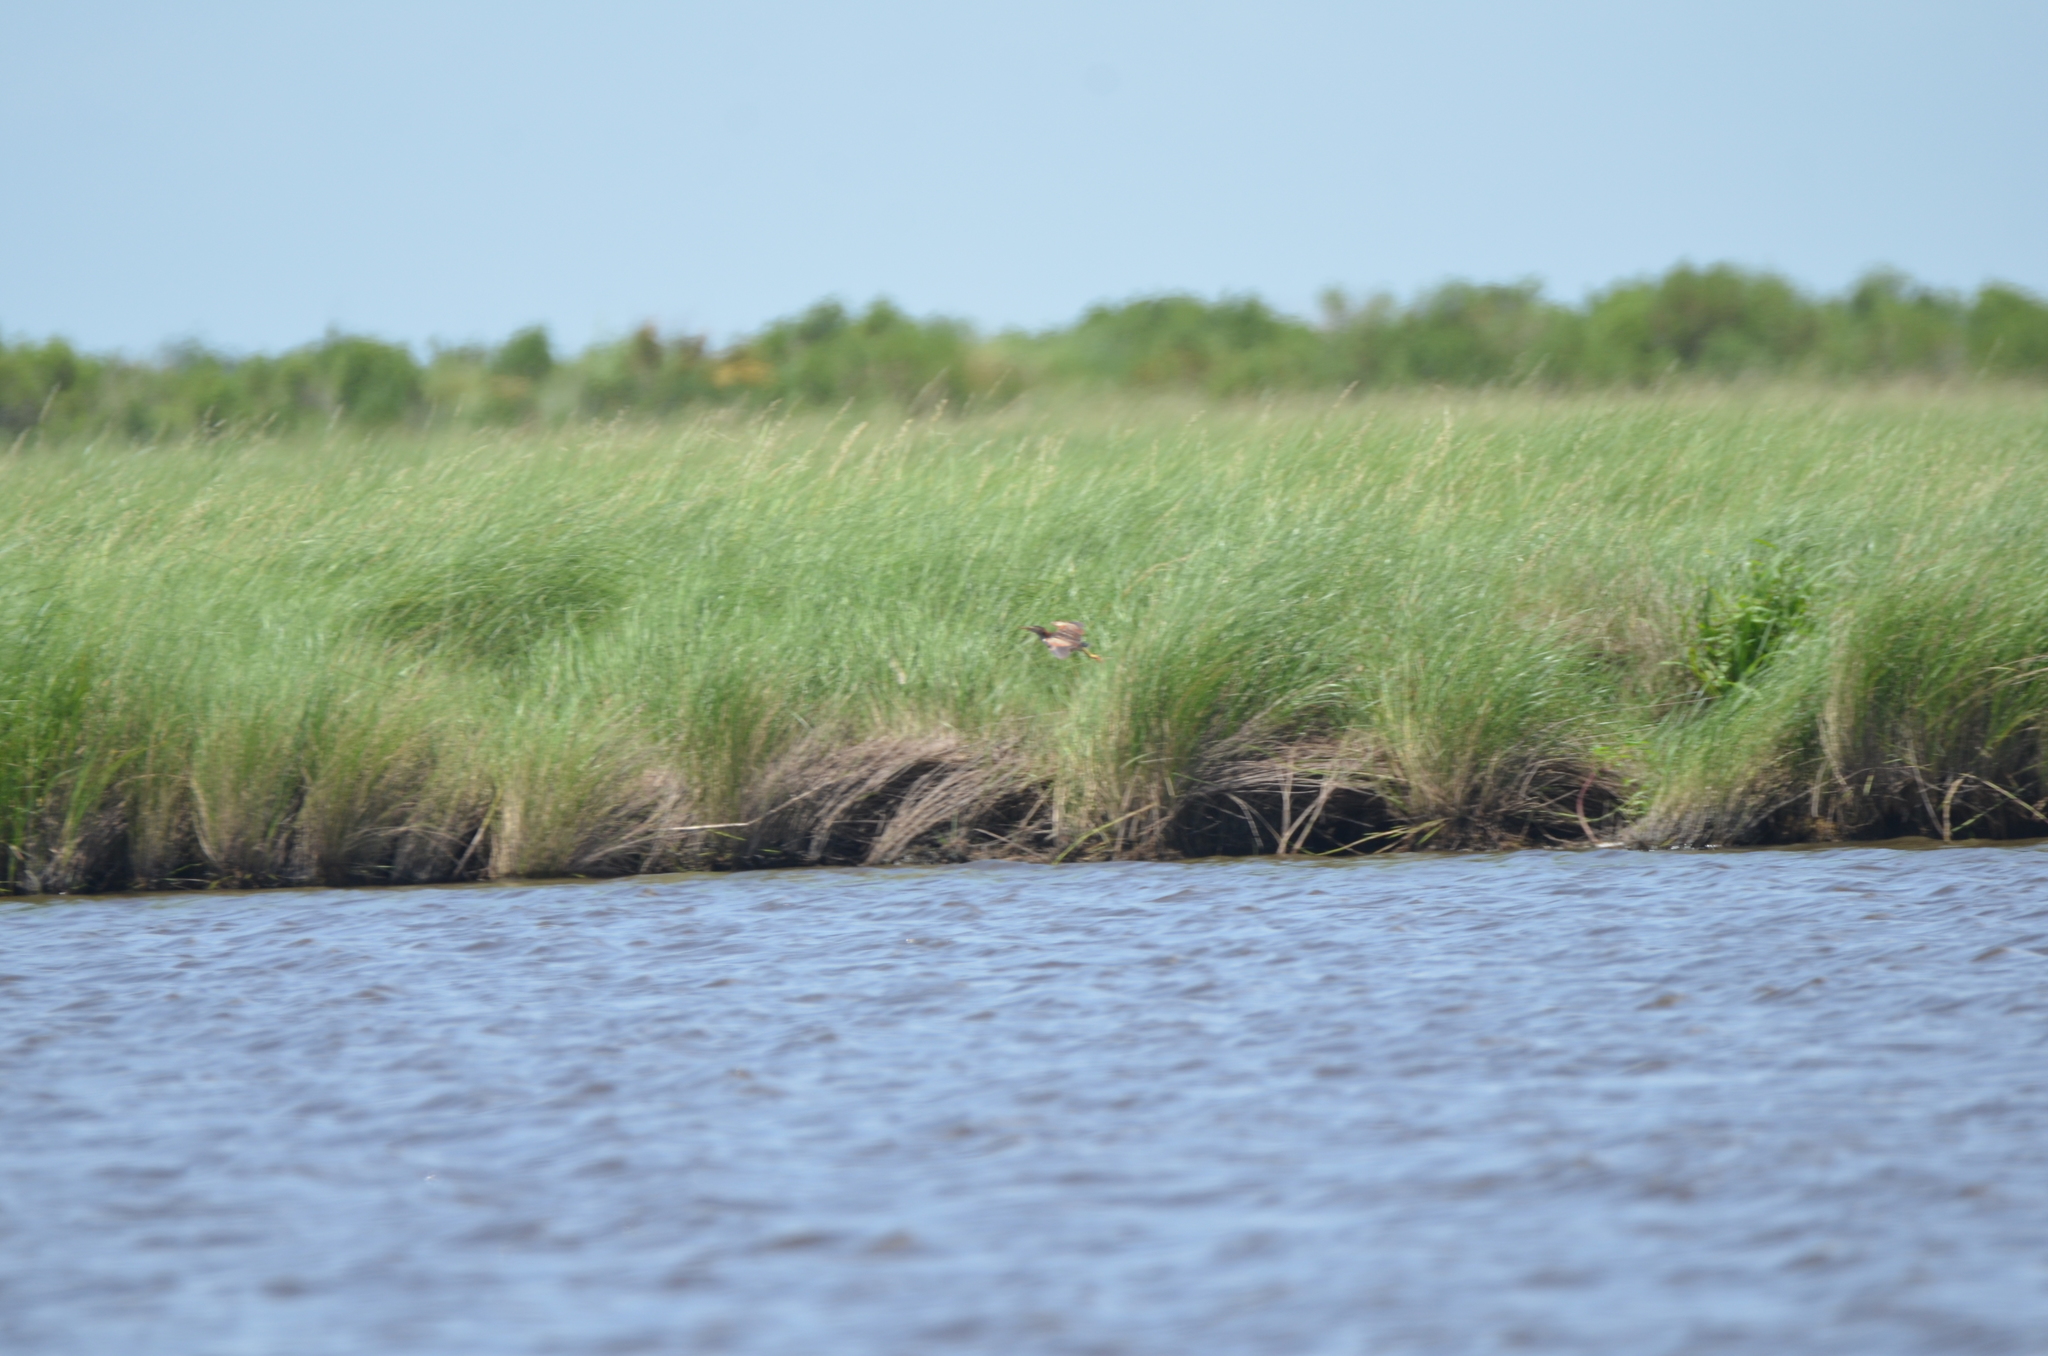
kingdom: Animalia
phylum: Chordata
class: Aves
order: Pelecaniformes
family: Ardeidae
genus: Ixobrychus
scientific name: Ixobrychus exilis
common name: Least bittern
